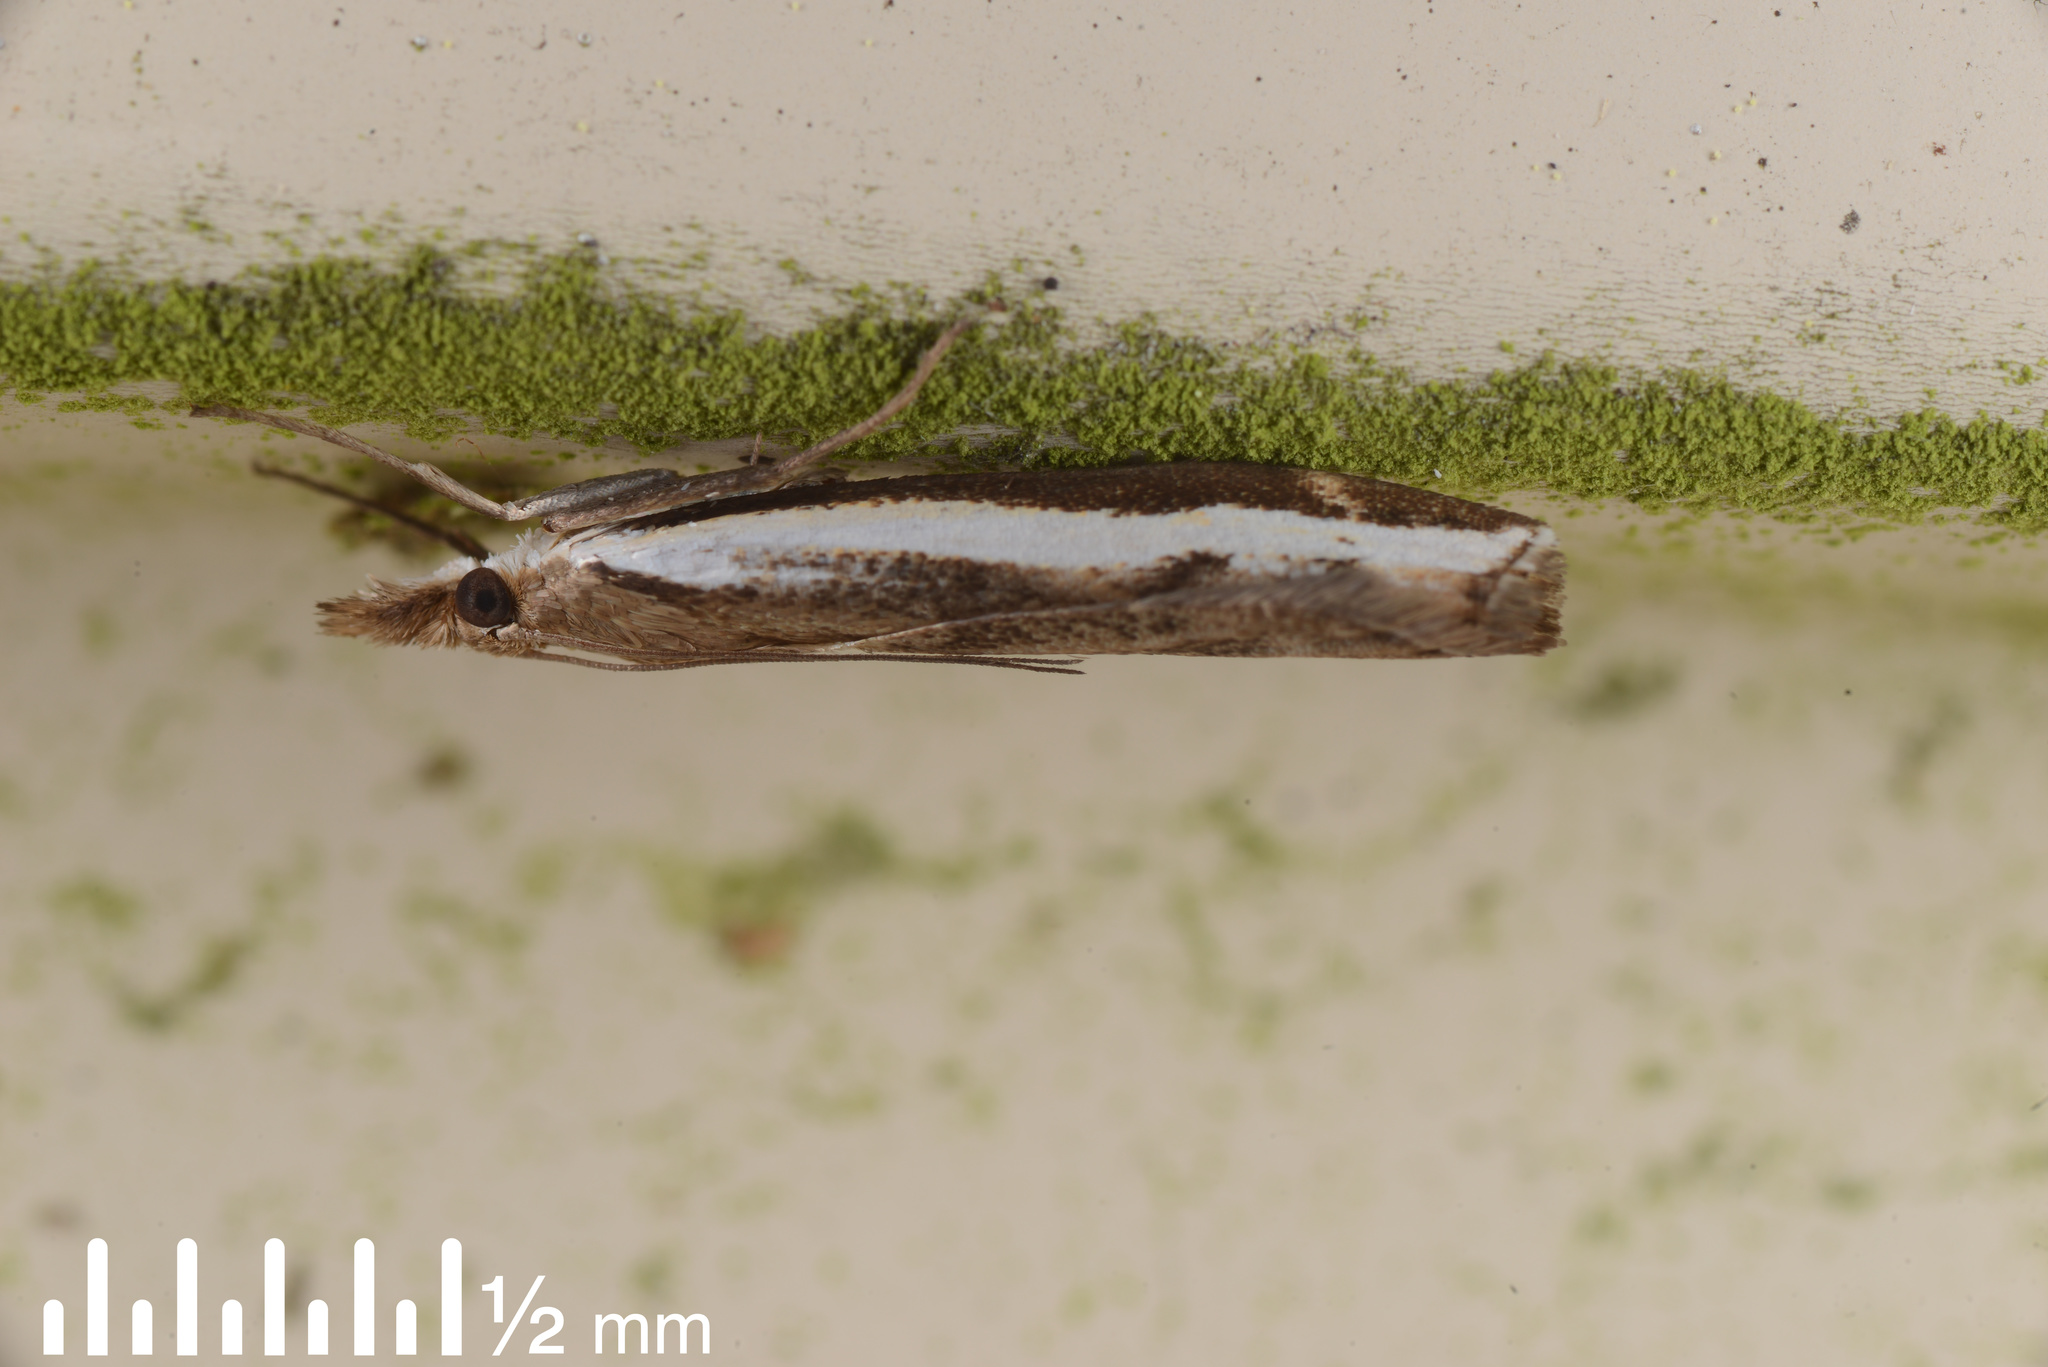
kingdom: Animalia
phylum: Arthropoda
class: Insecta
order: Lepidoptera
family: Crambidae
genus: Orocrambus
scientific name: Orocrambus flexuosellus
